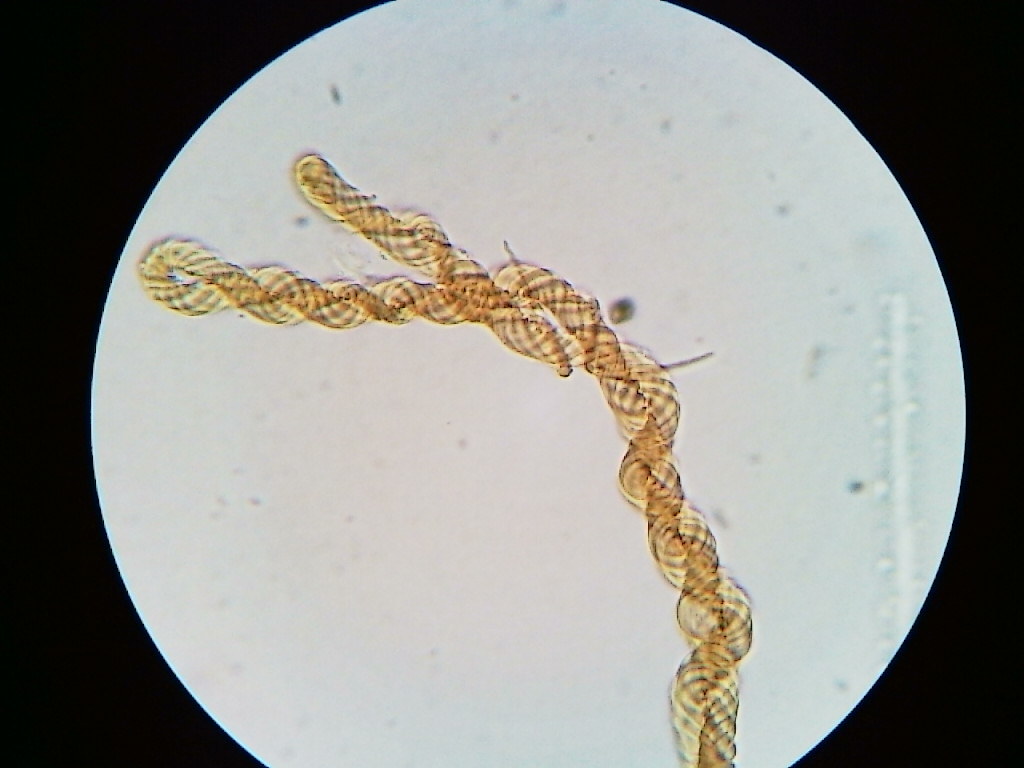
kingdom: Protozoa
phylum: Mycetozoa
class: Myxomycetes
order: Trichiales
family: Arcyriaceae
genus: Hemitrichia
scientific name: Hemitrichia decipiens
